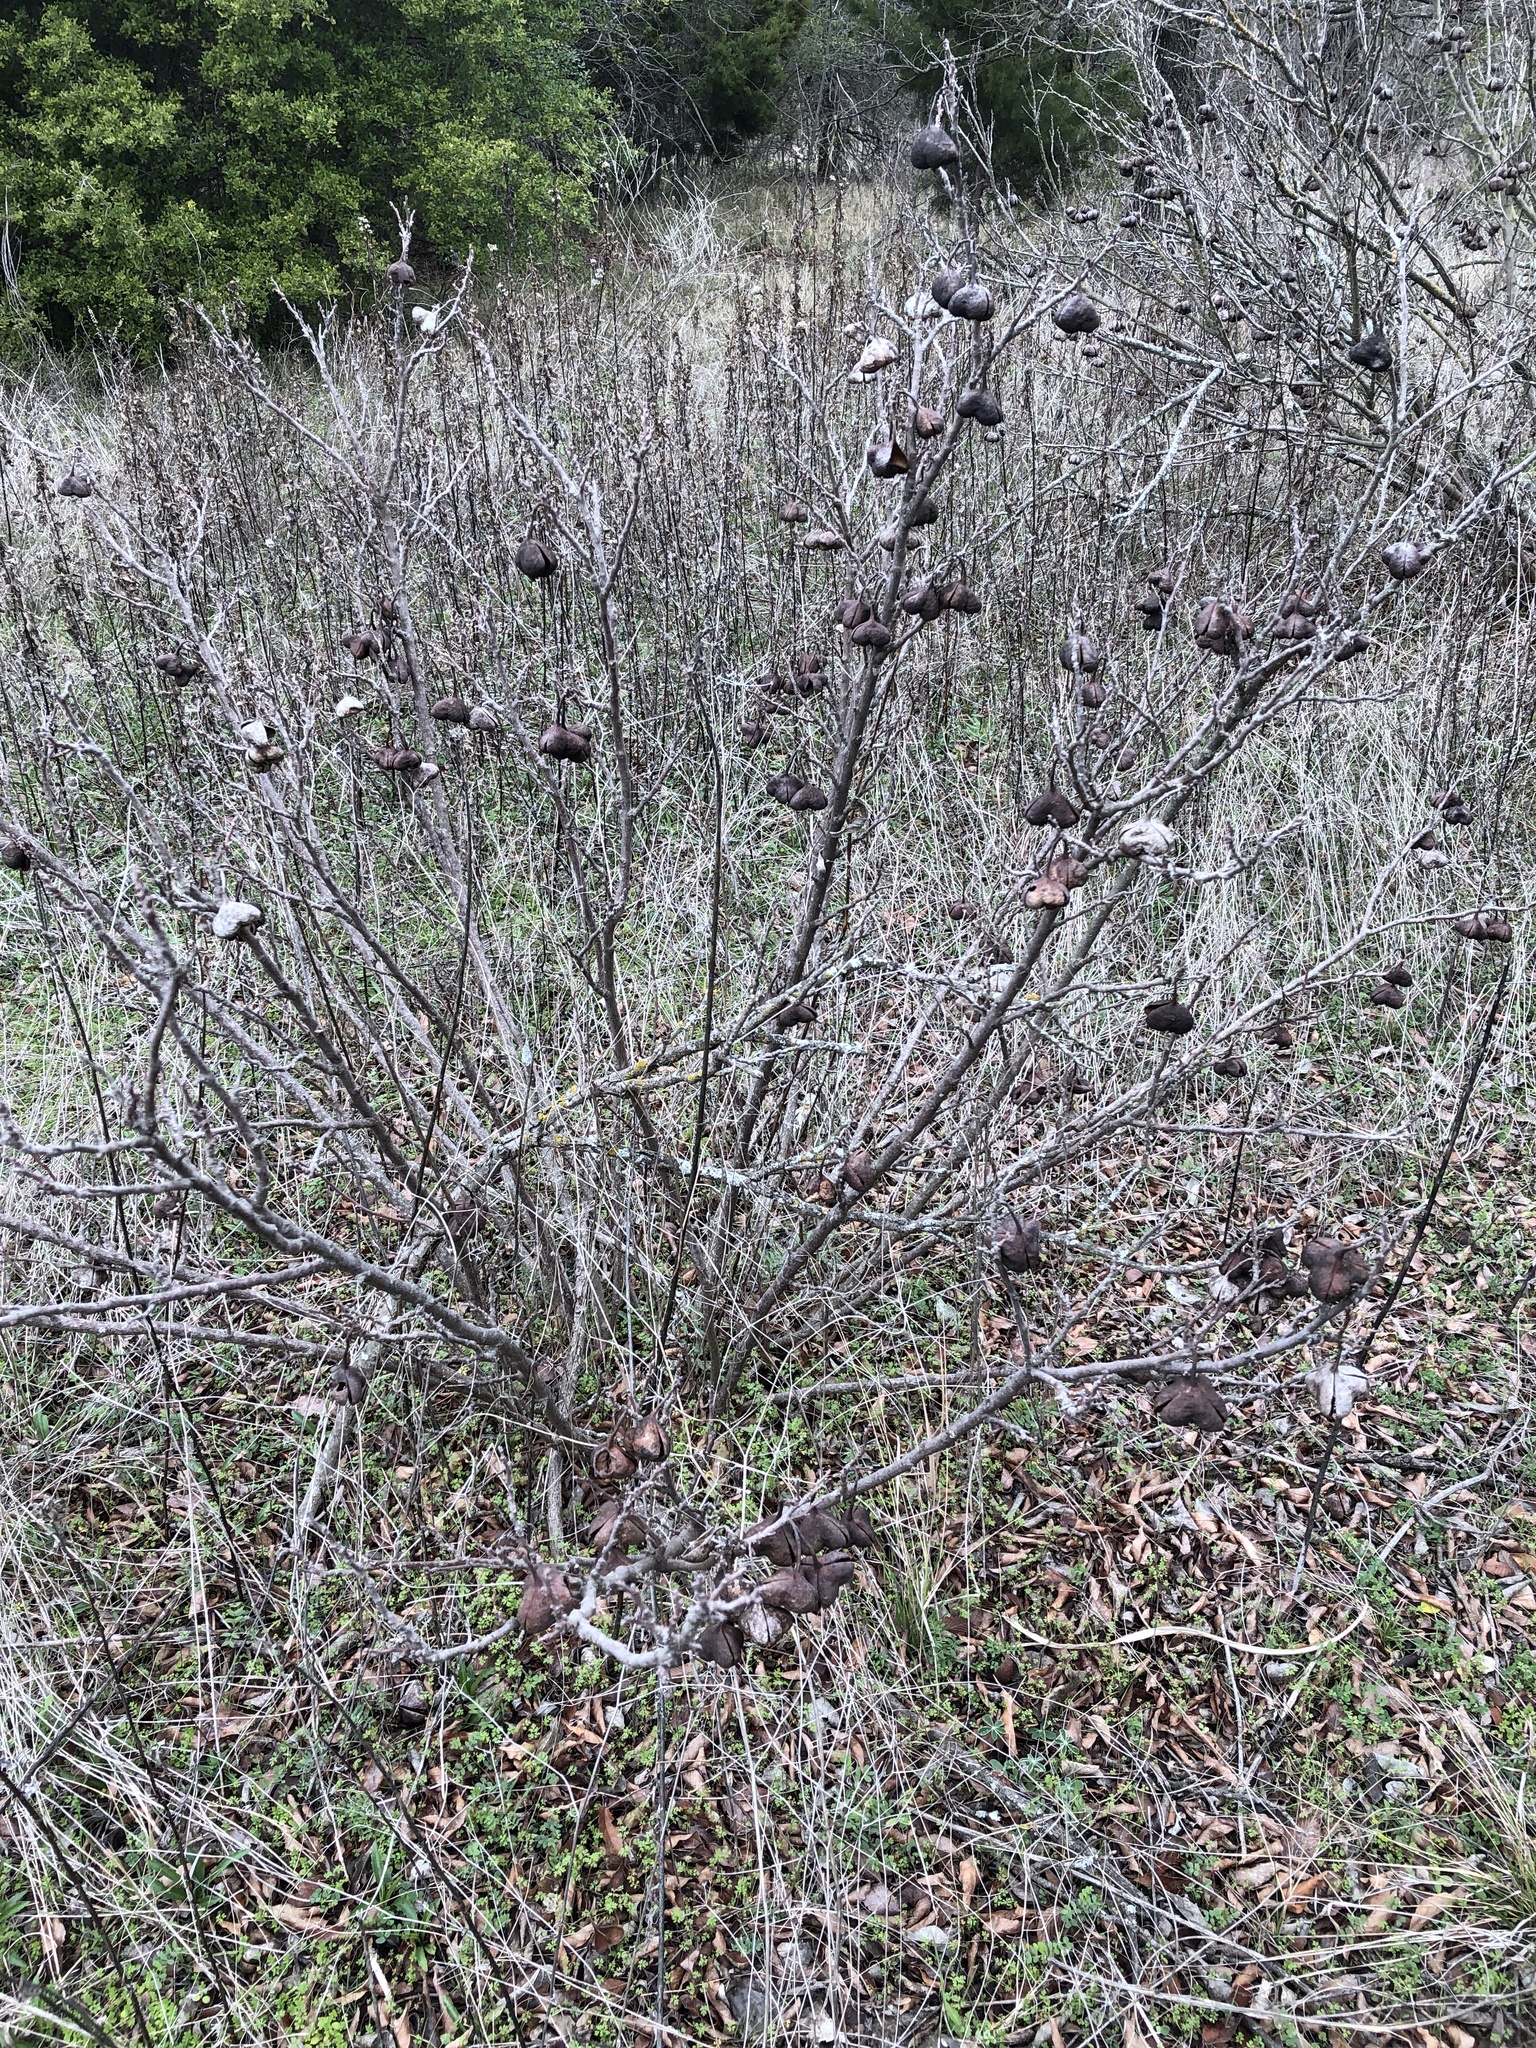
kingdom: Plantae
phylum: Tracheophyta
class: Magnoliopsida
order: Sapindales
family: Sapindaceae
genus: Ungnadia
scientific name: Ungnadia speciosa
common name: Texas-buckeye
